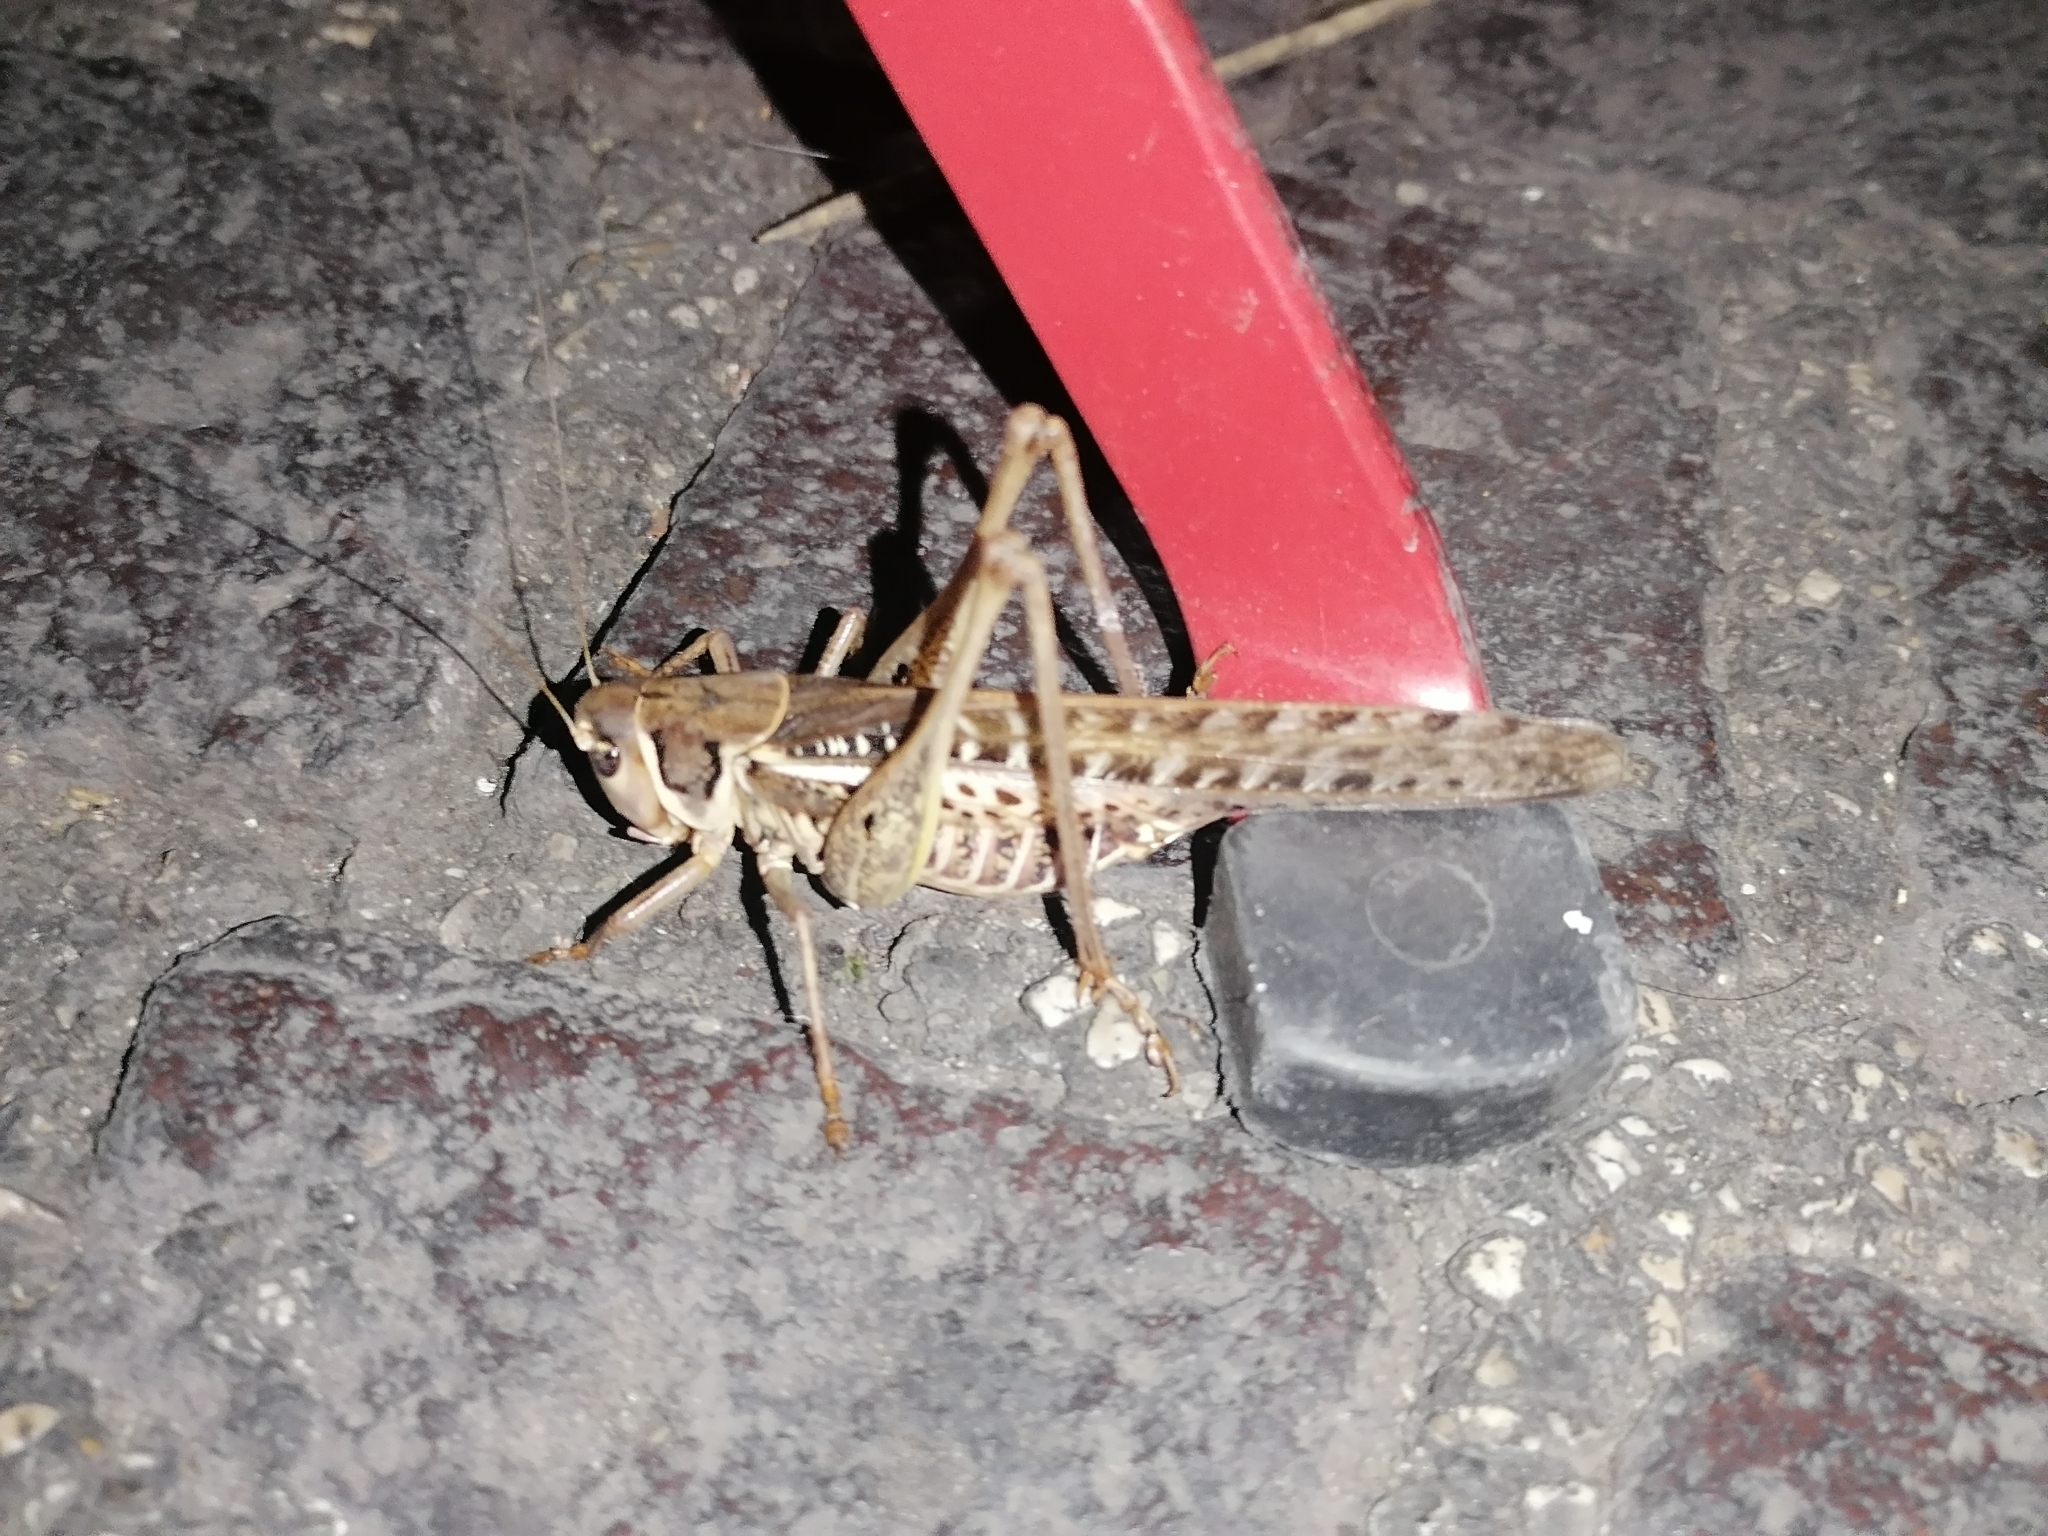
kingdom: Animalia
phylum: Arthropoda
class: Insecta
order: Orthoptera
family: Tettigoniidae
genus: Decticus
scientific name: Decticus albifrons
